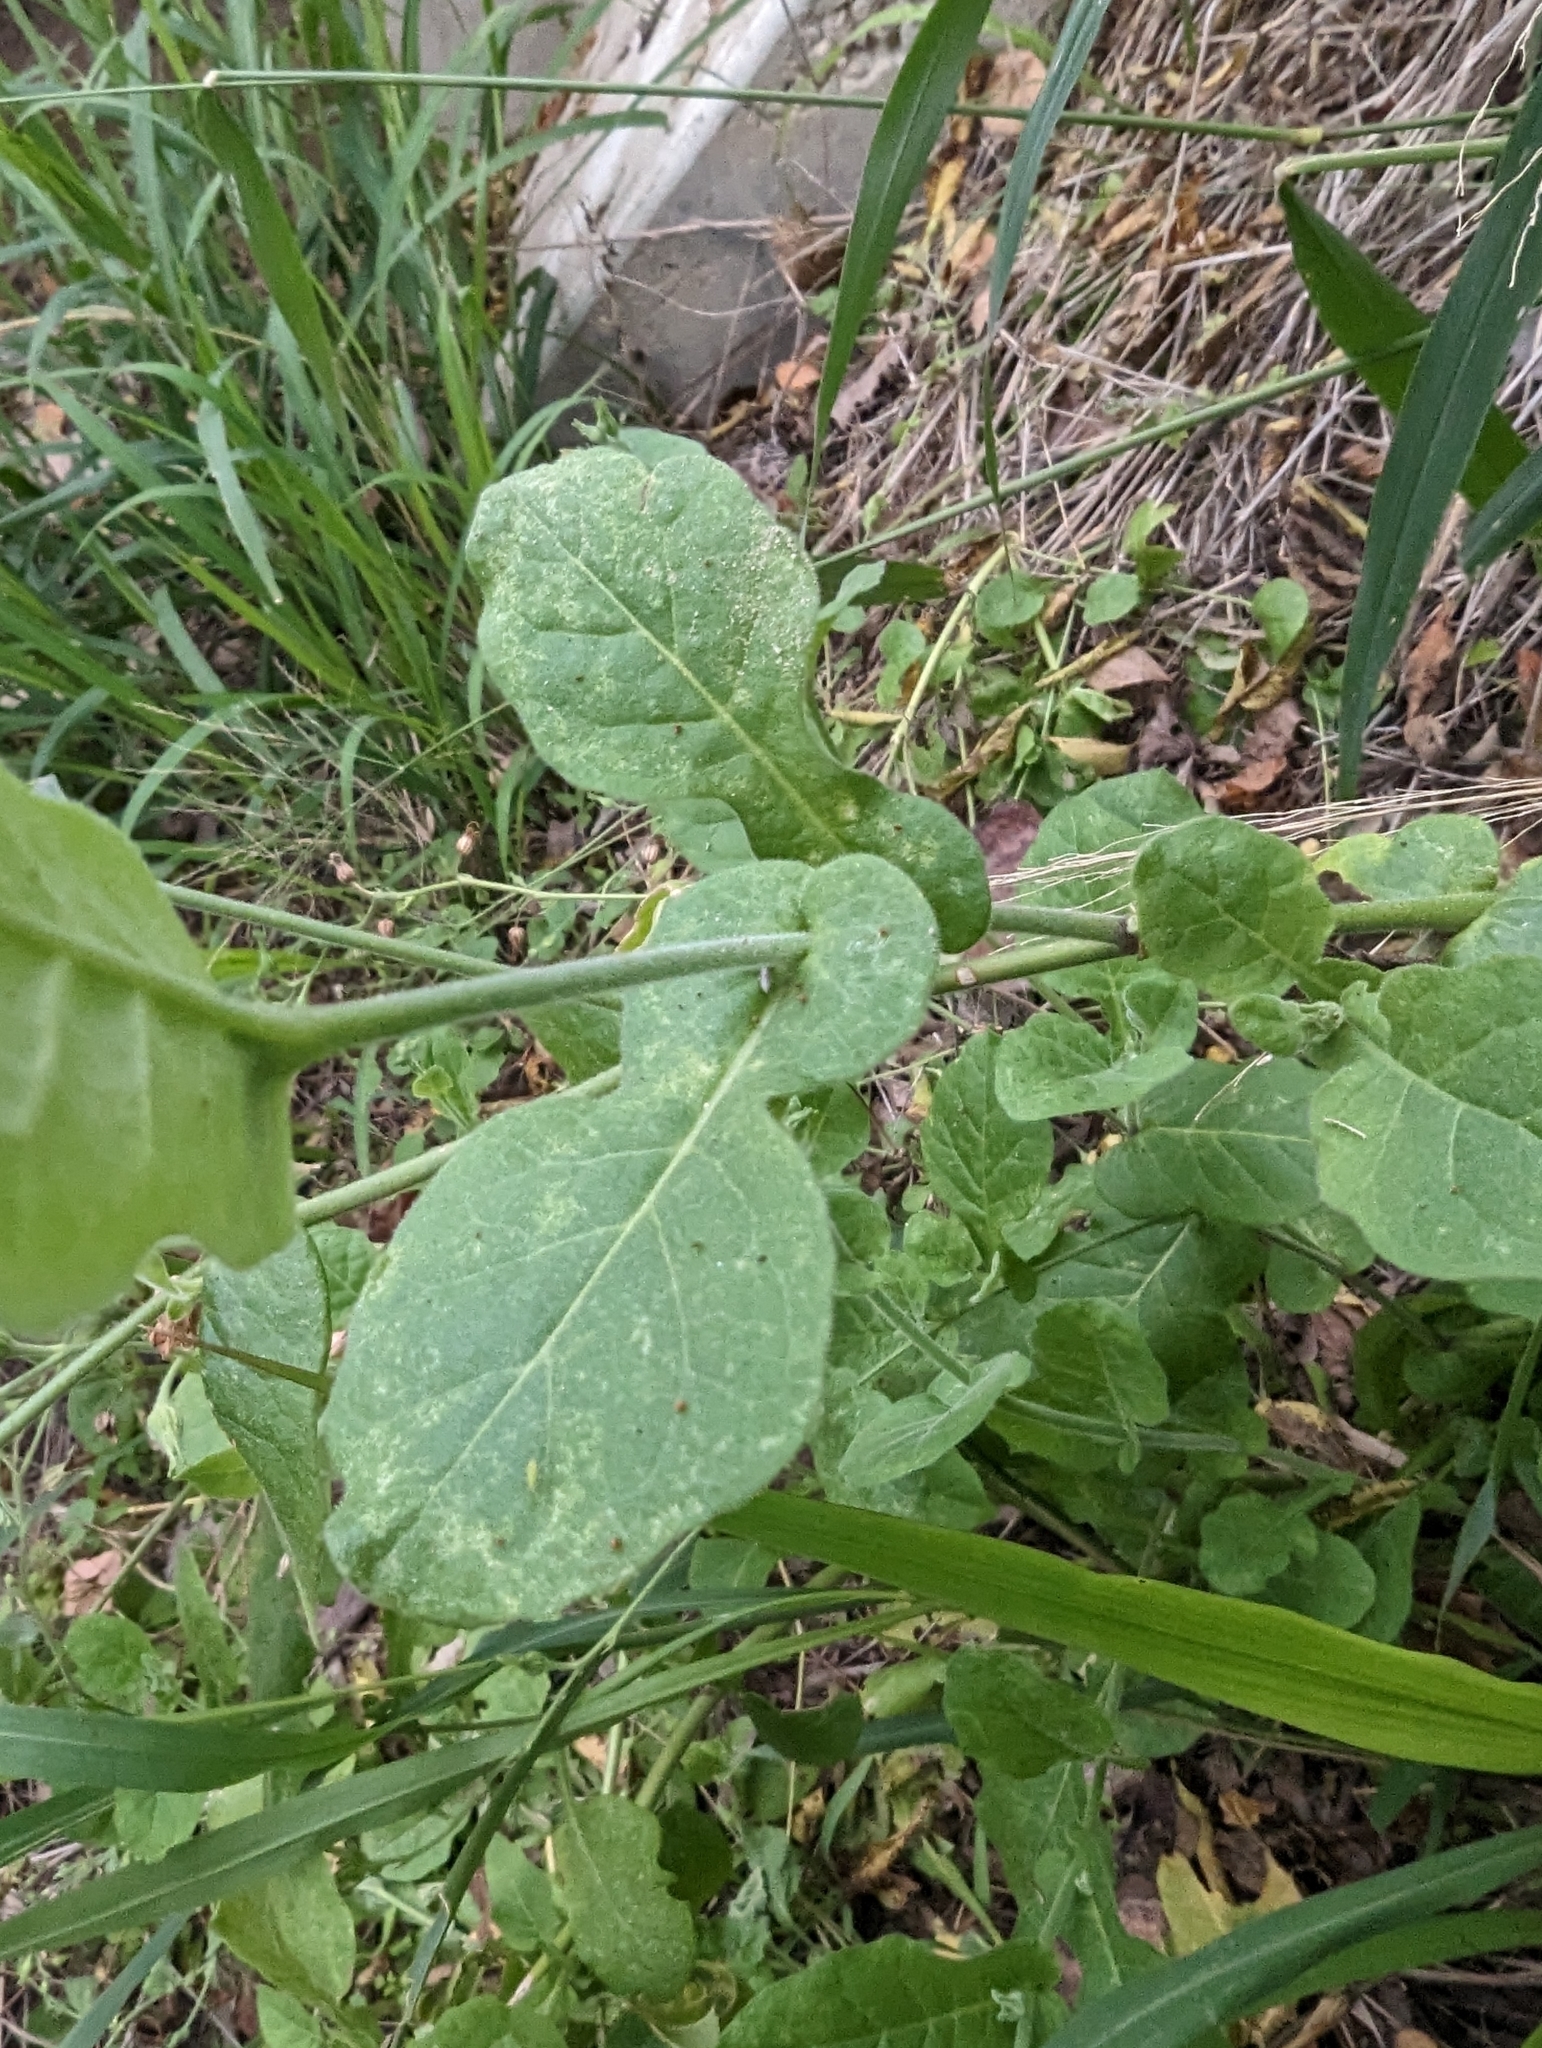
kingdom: Plantae
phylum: Tracheophyta
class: Magnoliopsida
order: Solanales
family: Solanaceae
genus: Nicotiana
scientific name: Nicotiana repanda
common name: Fiddle-leaf tobacco
